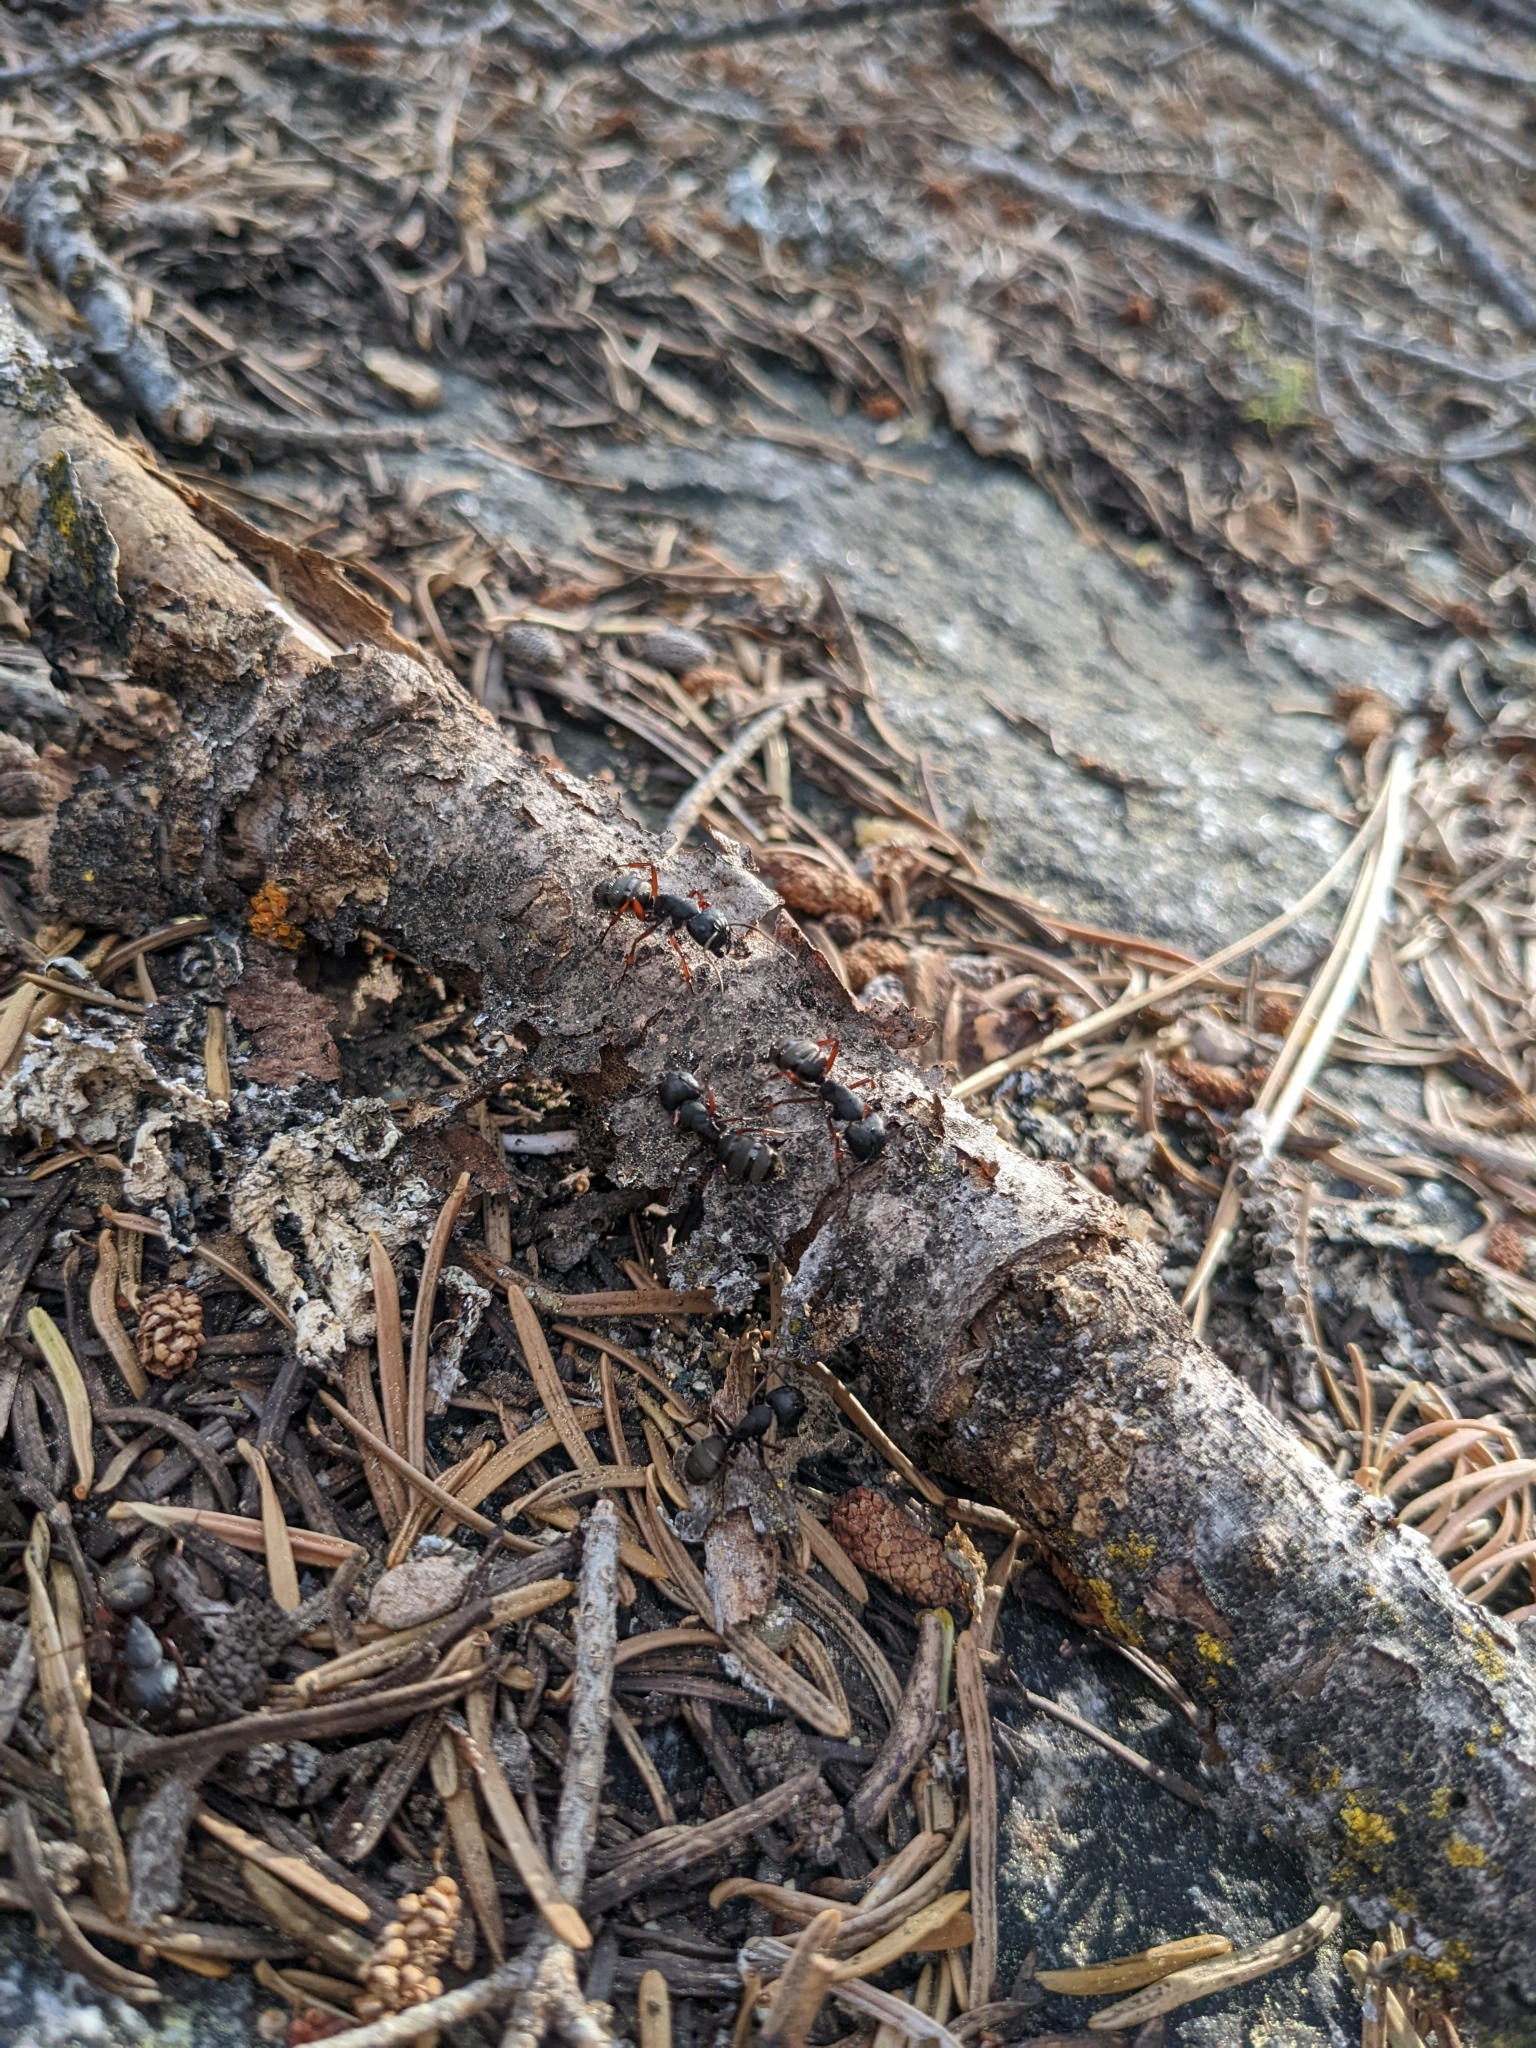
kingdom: Animalia
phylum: Arthropoda
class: Insecta
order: Hymenoptera
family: Formicidae
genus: Camponotus
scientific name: Camponotus modoc
